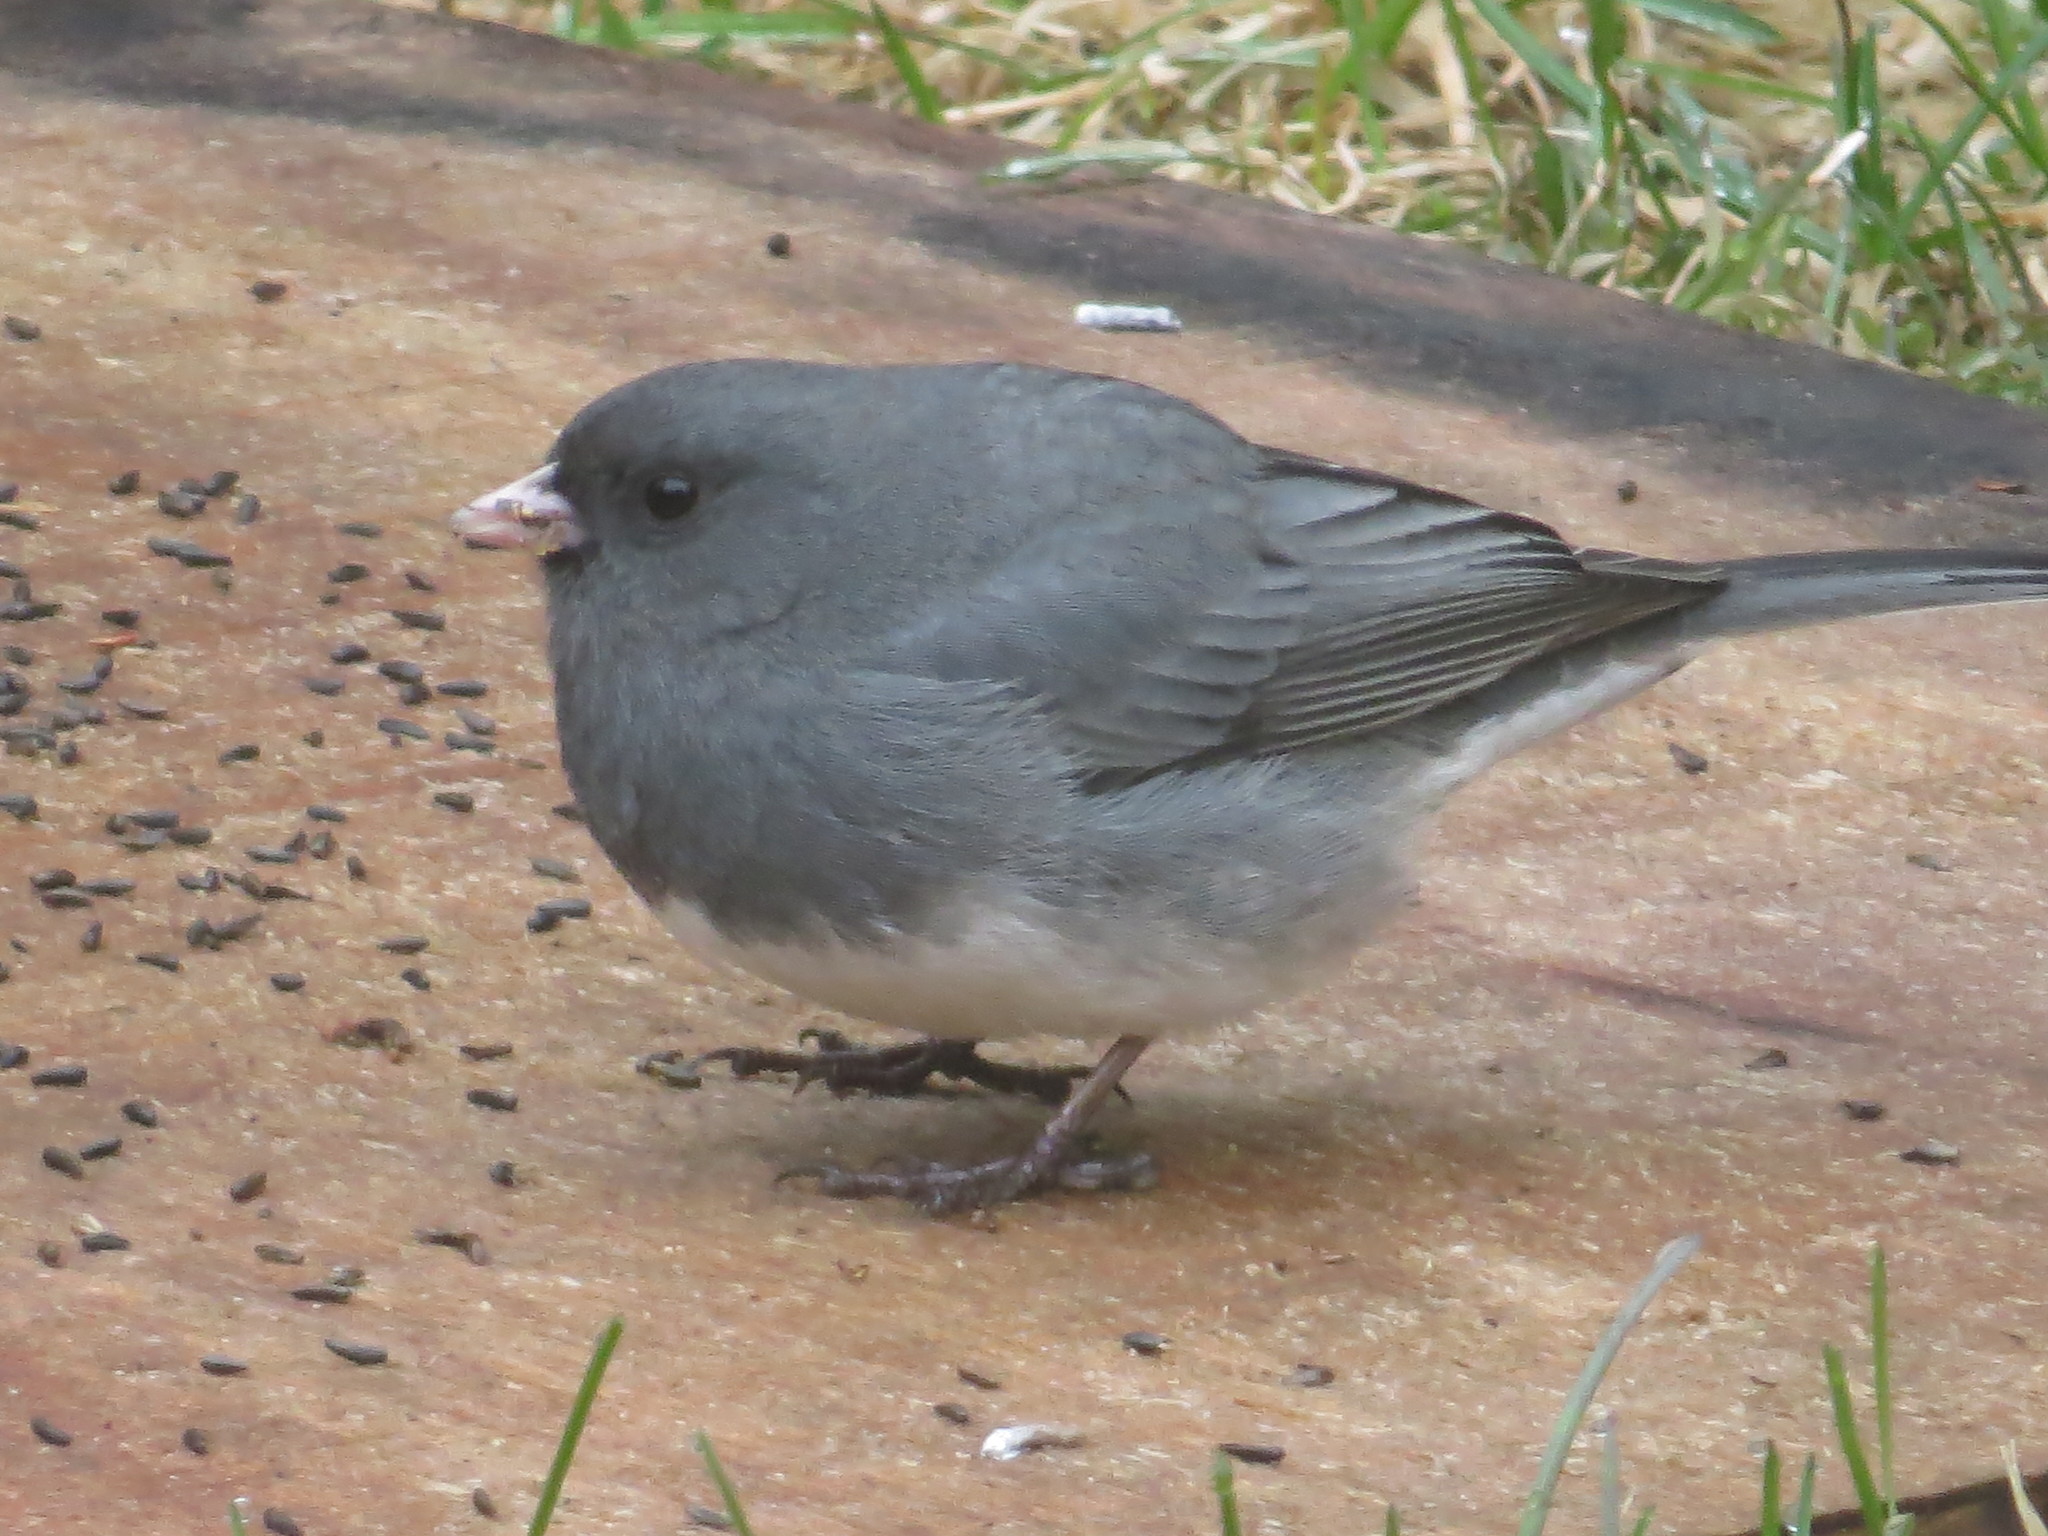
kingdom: Animalia
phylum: Chordata
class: Aves
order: Passeriformes
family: Passerellidae
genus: Junco
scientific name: Junco hyemalis
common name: Dark-eyed junco
